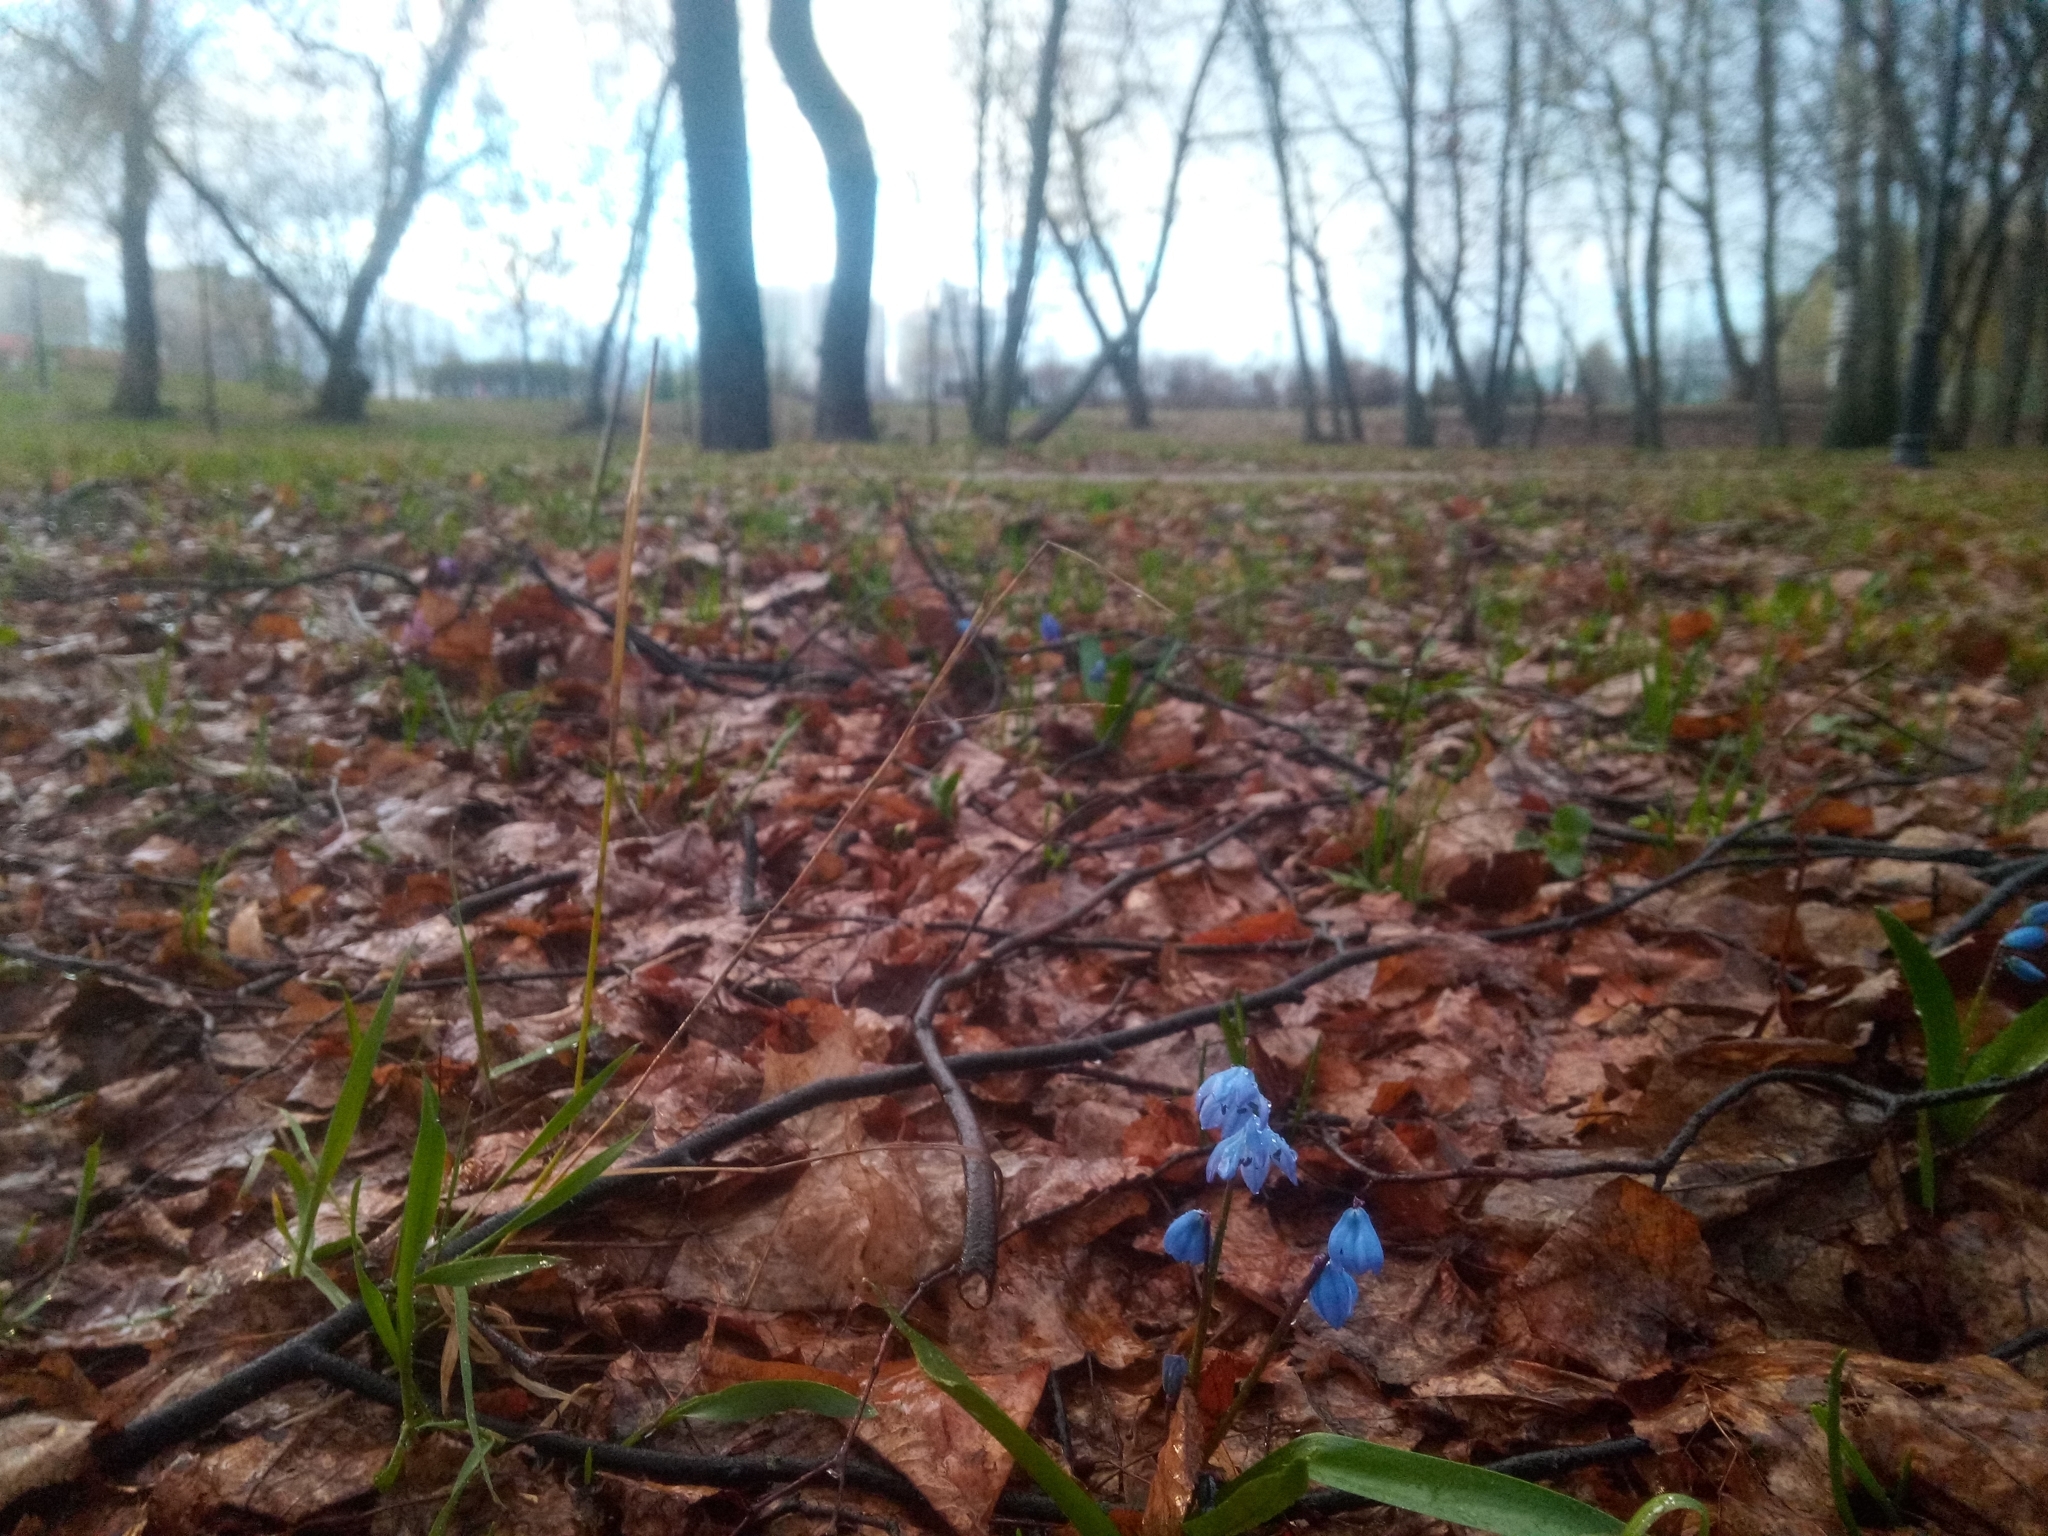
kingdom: Plantae
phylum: Tracheophyta
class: Liliopsida
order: Asparagales
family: Asparagaceae
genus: Scilla
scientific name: Scilla siberica
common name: Siberian squill
